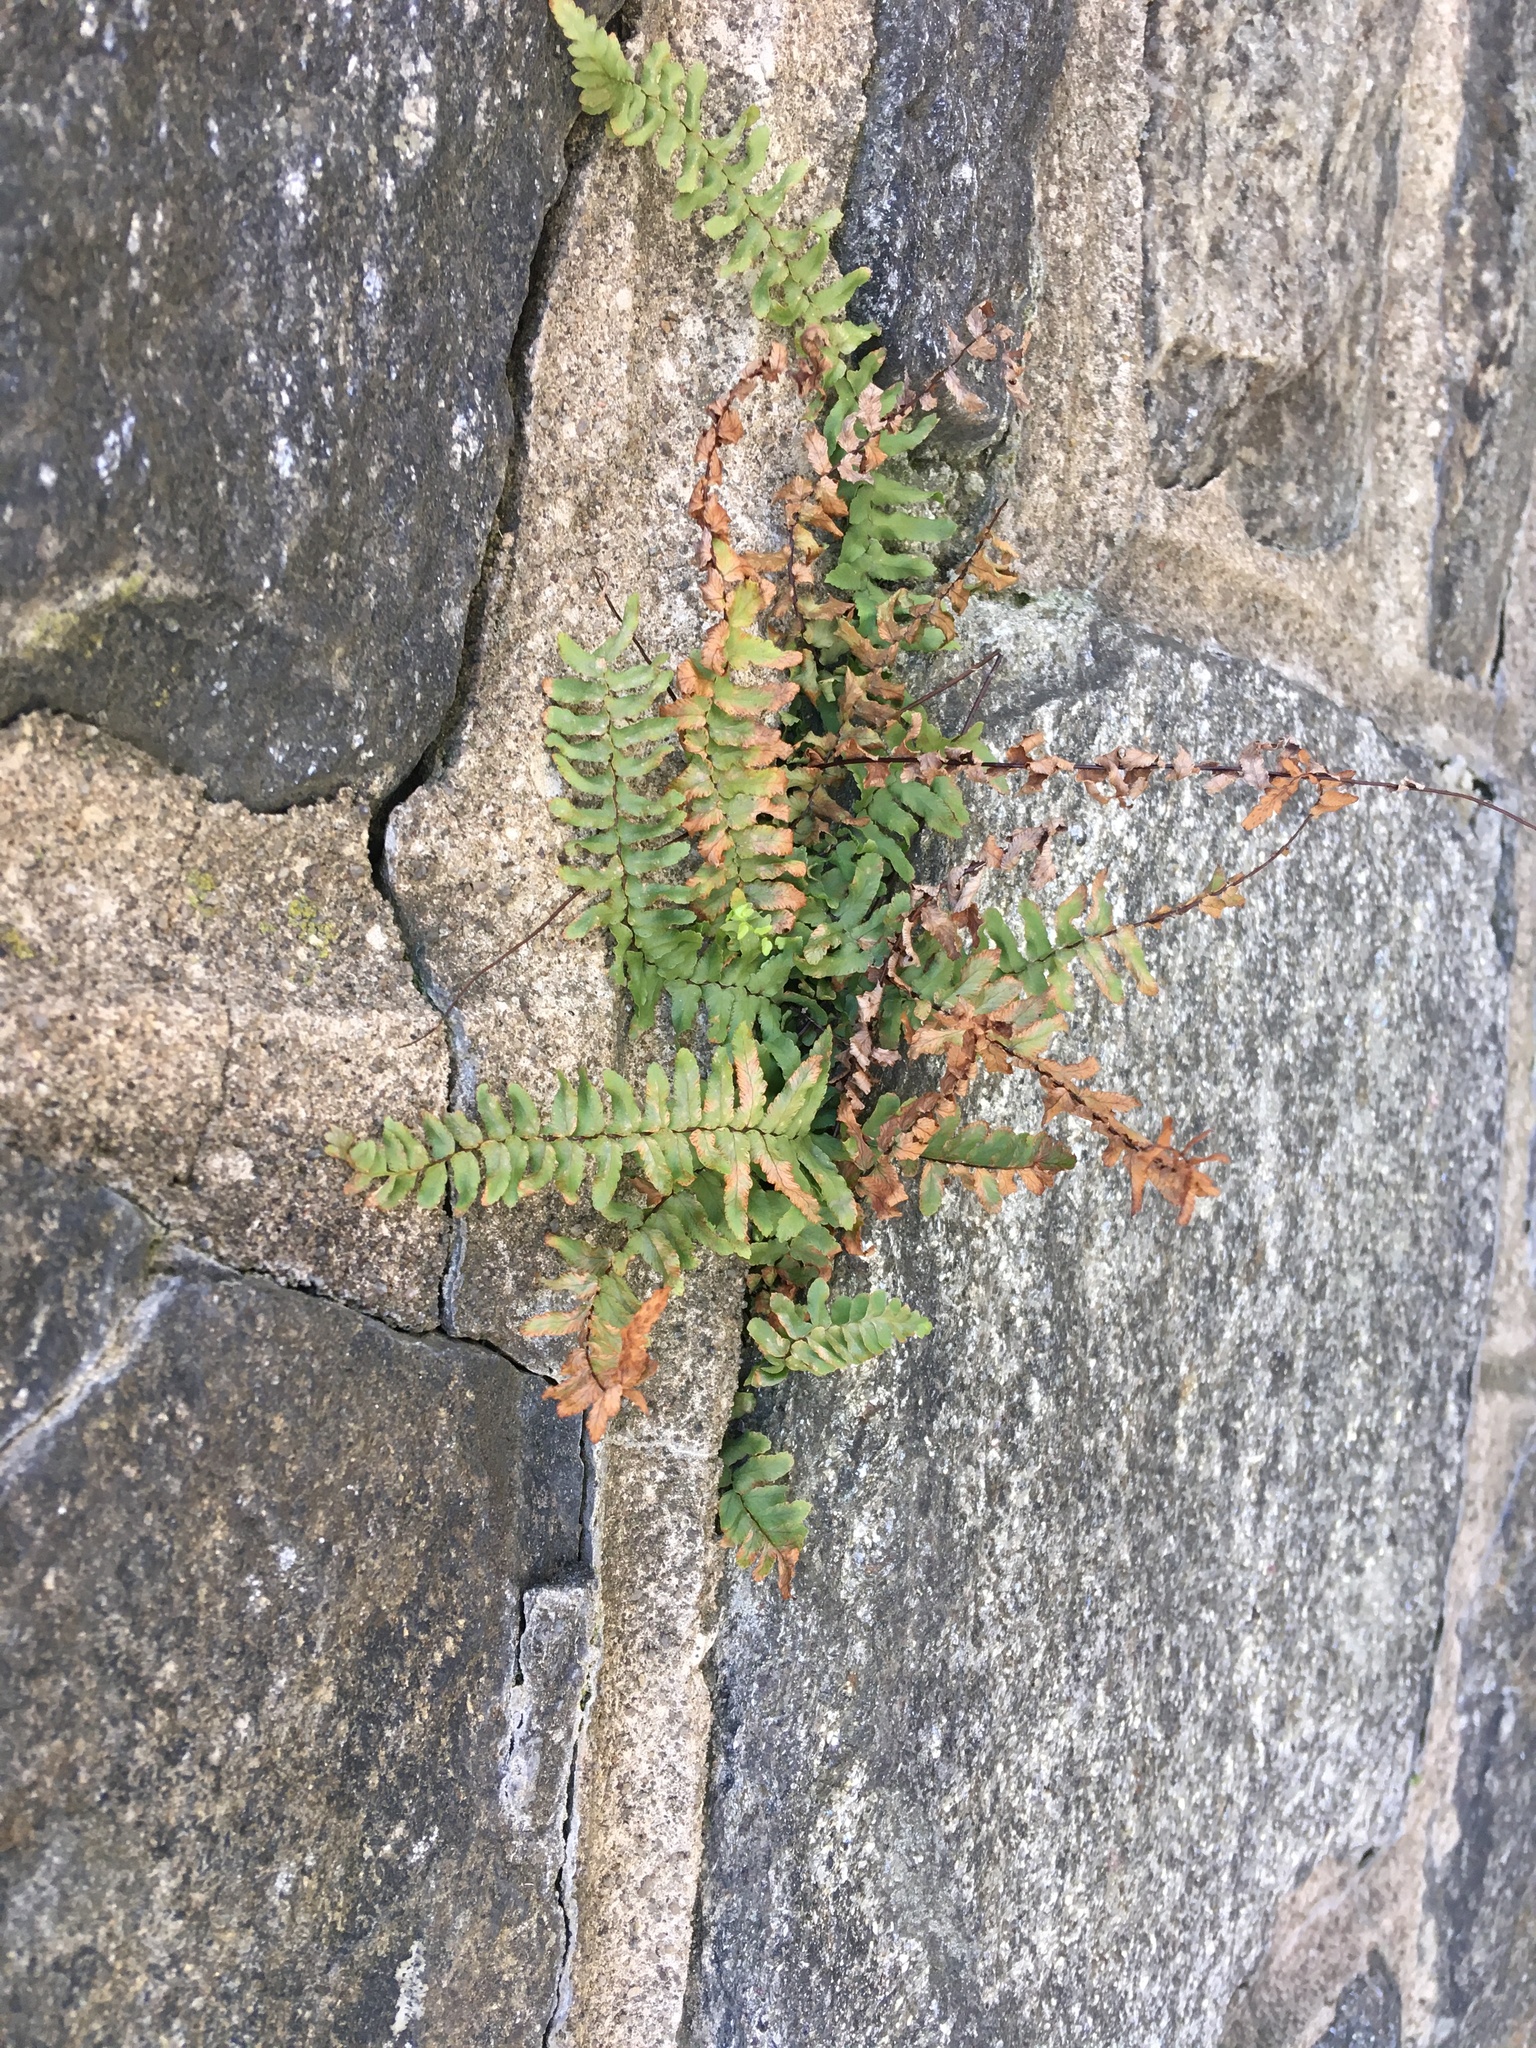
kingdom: Plantae
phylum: Tracheophyta
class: Polypodiopsida
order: Polypodiales
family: Aspleniaceae
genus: Asplenium
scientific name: Asplenium platyneuron
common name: Ebony spleenwort
